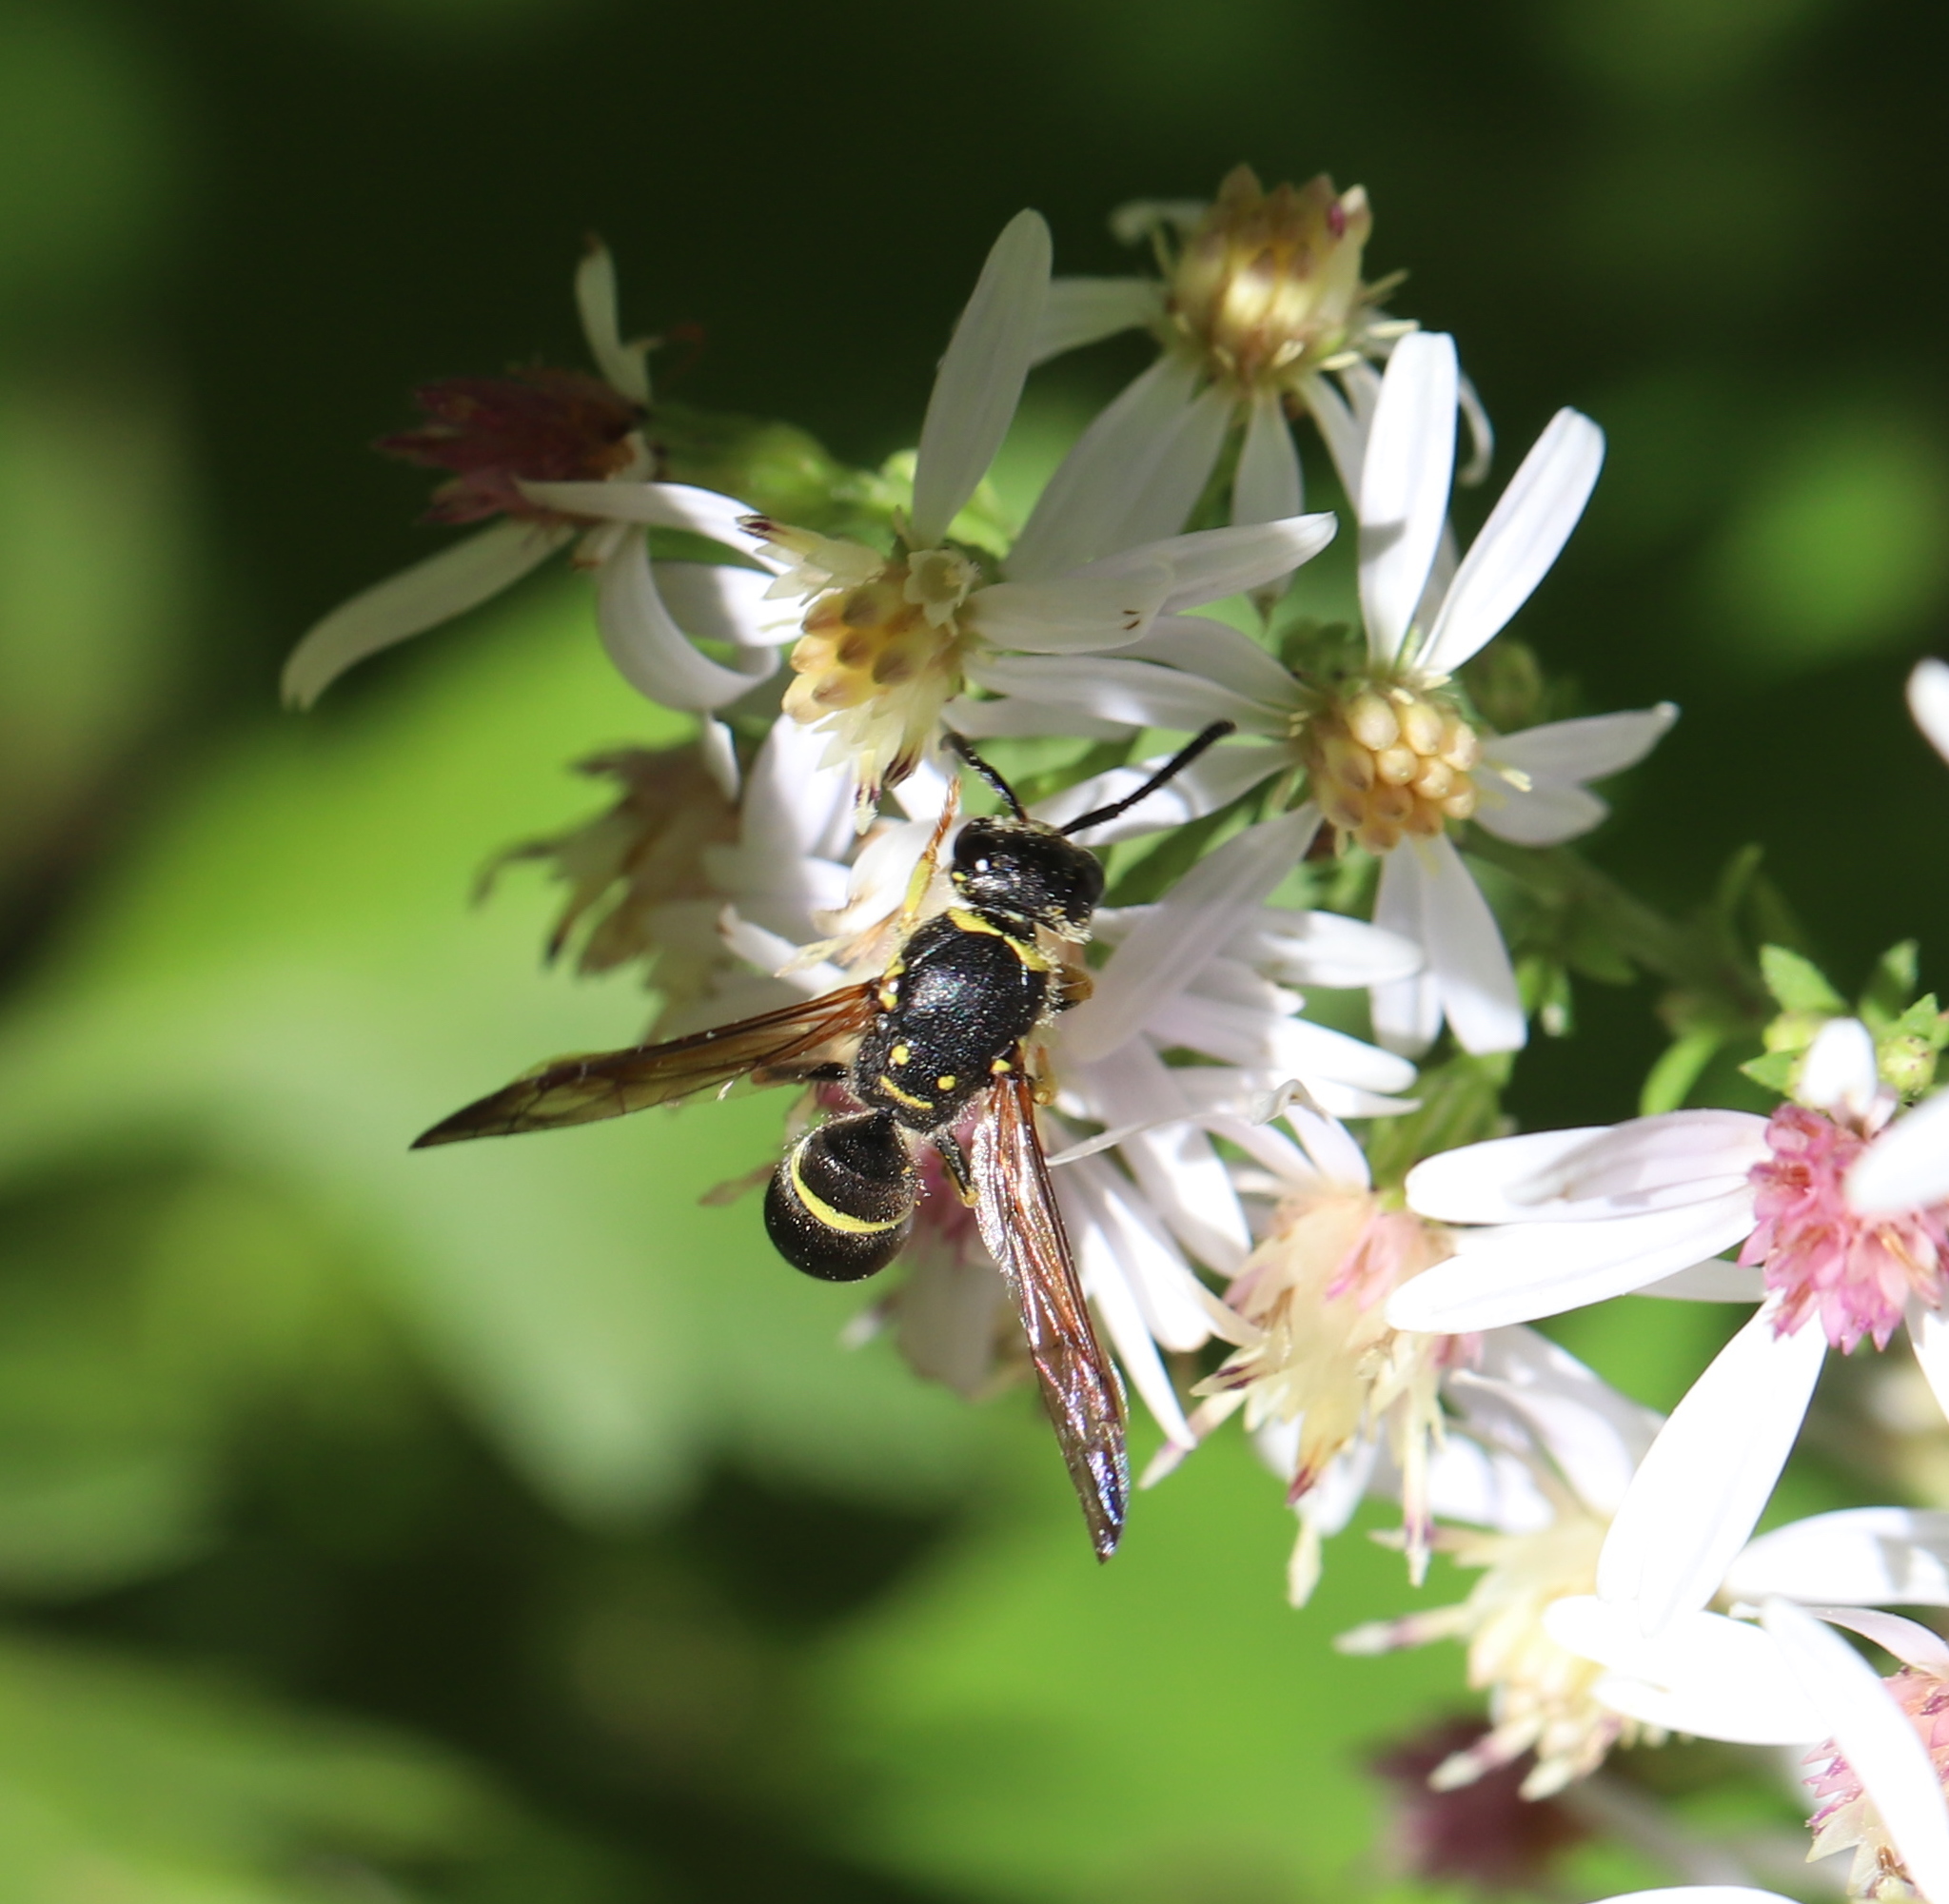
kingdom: Animalia
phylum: Arthropoda
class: Insecta
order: Hymenoptera
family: Vespidae
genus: Ancistrocerus
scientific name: Ancistrocerus adiabatus
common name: Bramble mason wasp
